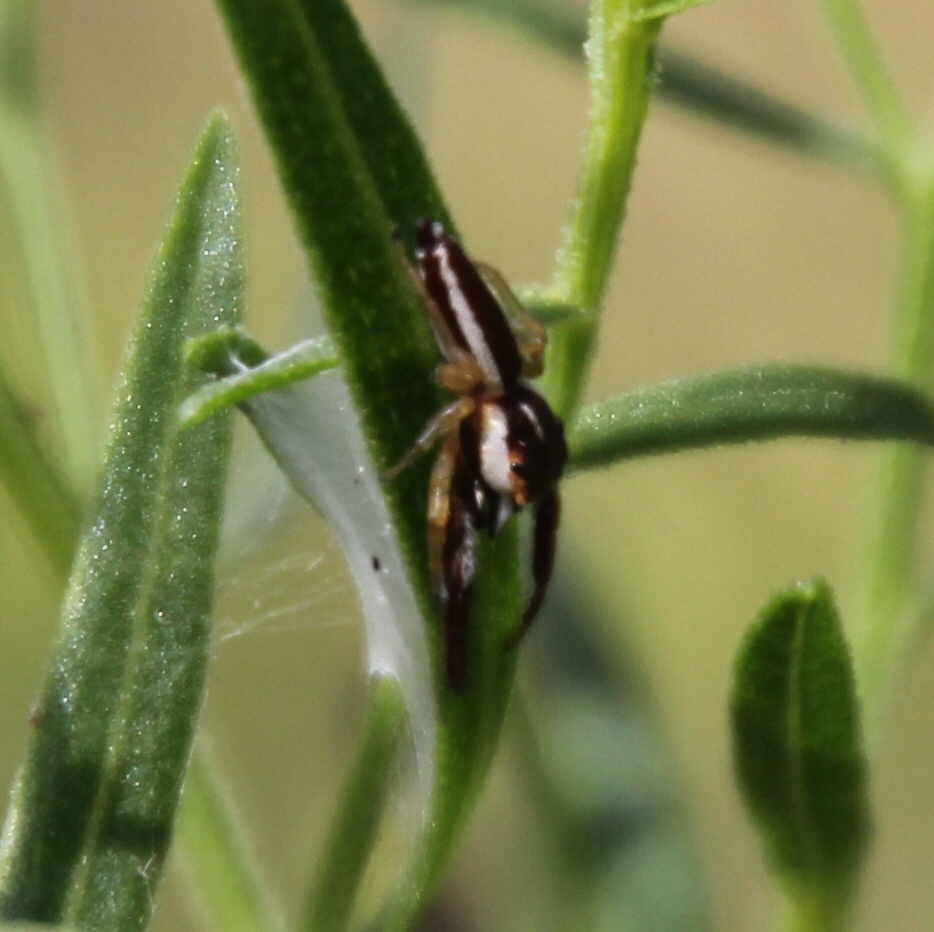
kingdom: Animalia
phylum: Arthropoda
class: Arachnida
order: Araneae
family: Salticidae
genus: Hentzia
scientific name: Hentzia palmarum
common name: Common hentz jumping spider
